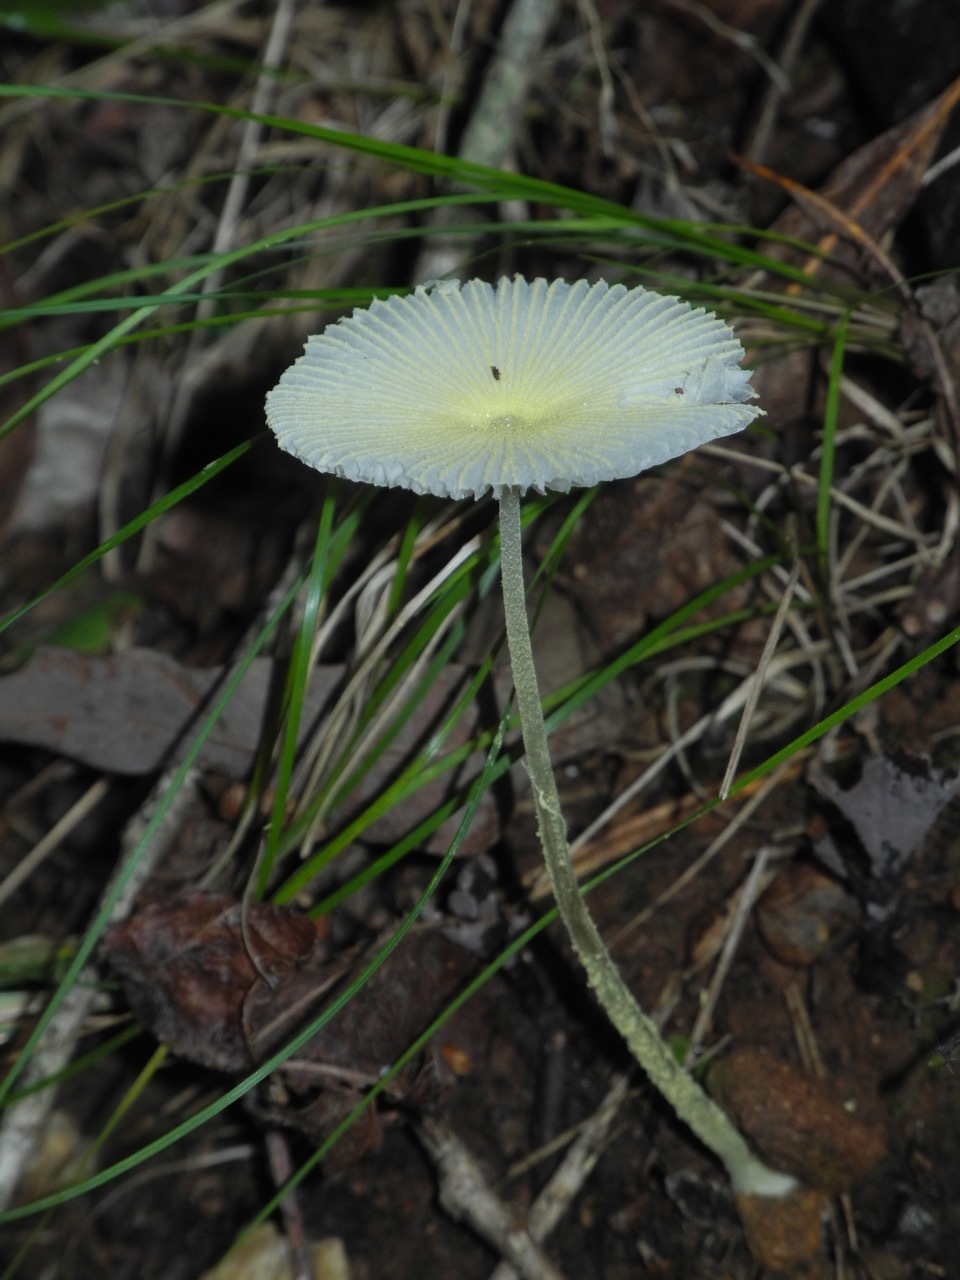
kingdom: Fungi
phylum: Basidiomycota
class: Agaricomycetes
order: Agaricales
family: Agaricaceae
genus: Leucocoprinus
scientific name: Leucocoprinus fragilissimus
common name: Fragile dapperling
